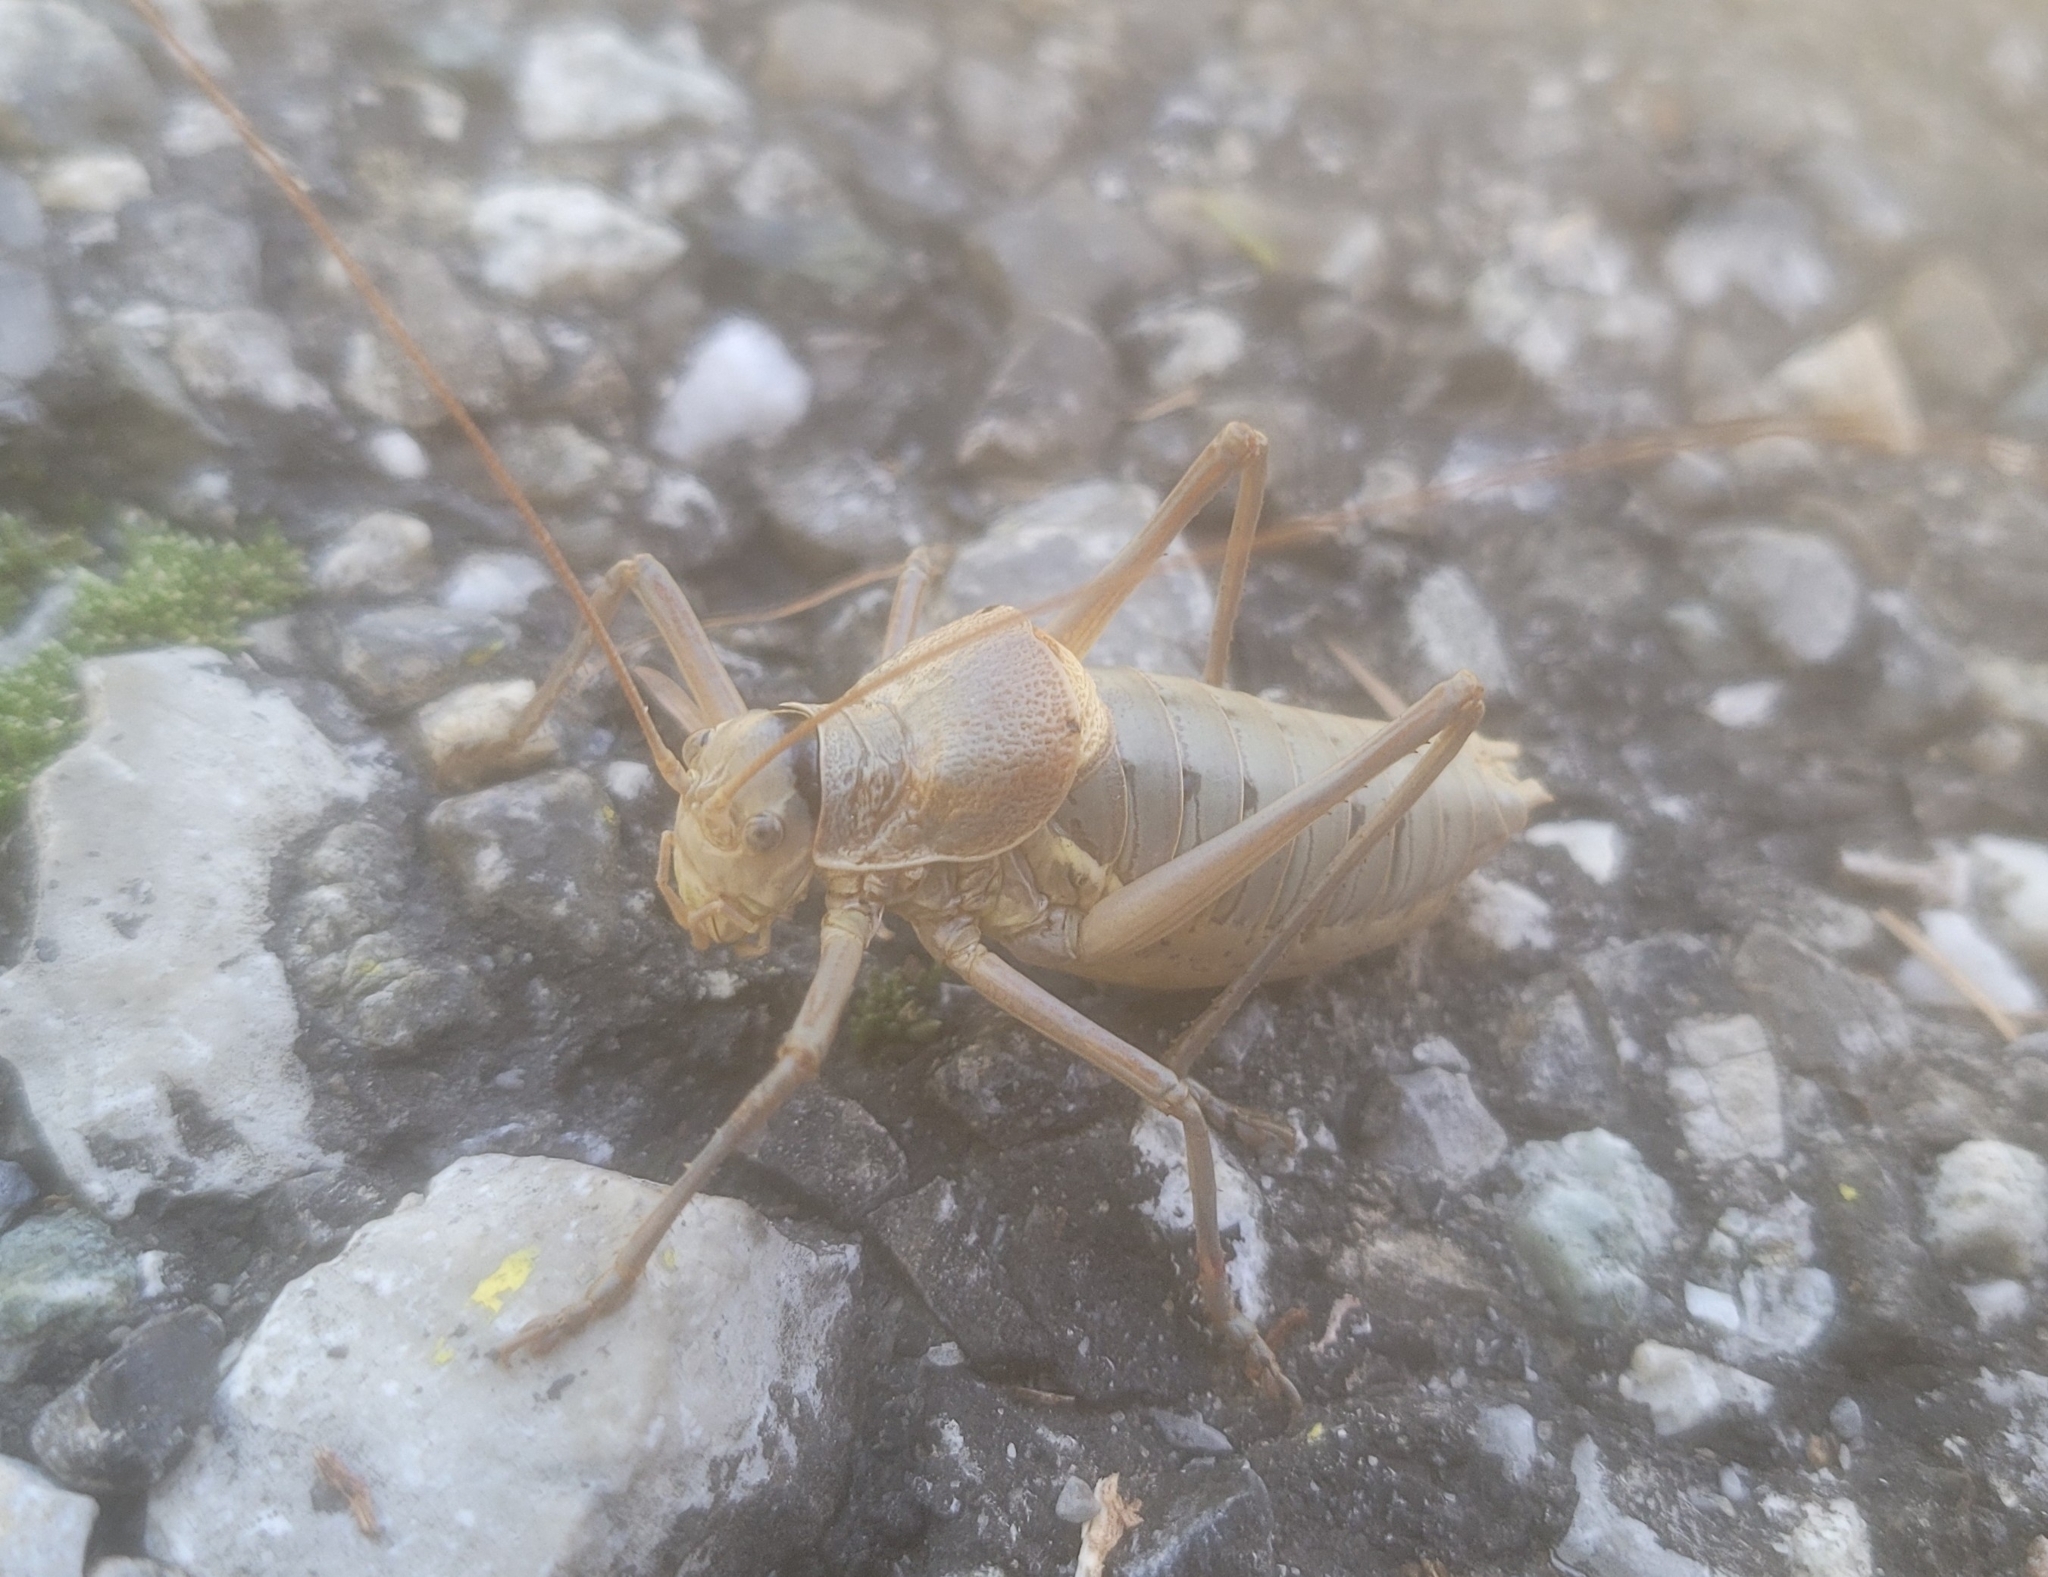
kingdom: Animalia
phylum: Arthropoda
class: Insecta
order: Orthoptera
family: Tettigoniidae
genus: Ephippiger
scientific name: Ephippiger terrestris
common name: Alpine saddle-backed bush-cricket
